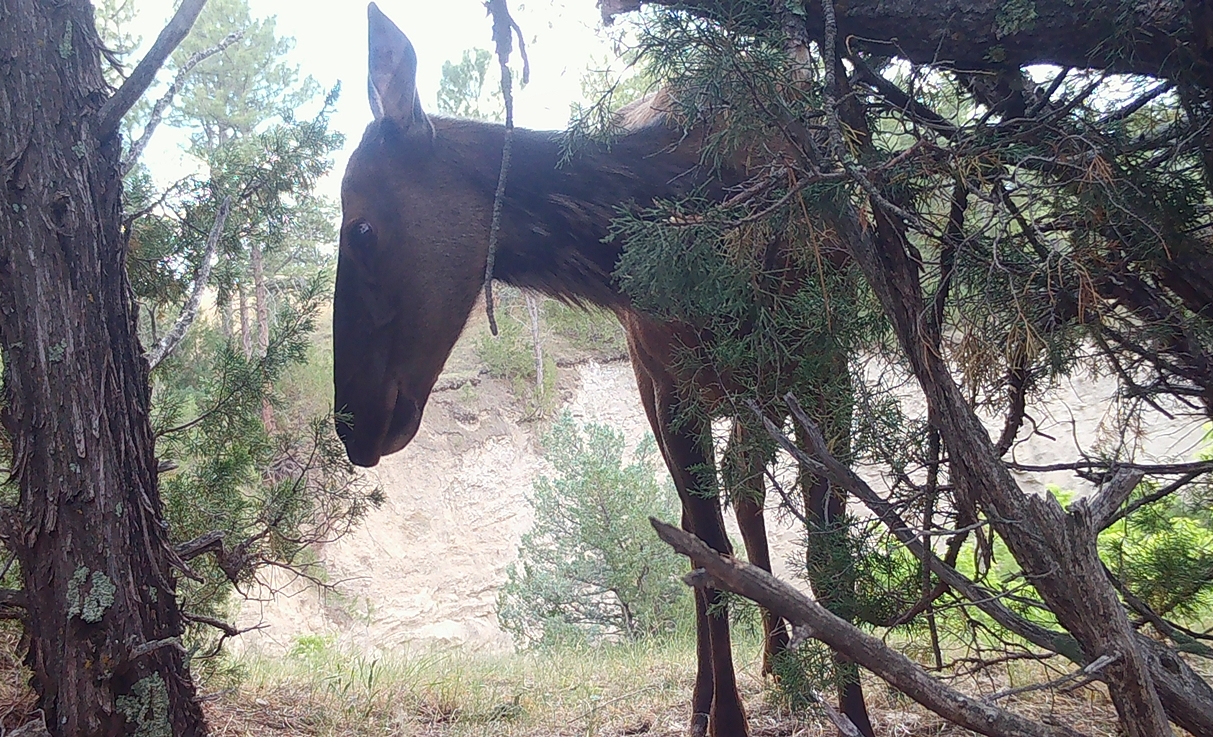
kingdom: Animalia
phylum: Chordata
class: Mammalia
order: Artiodactyla
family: Cervidae
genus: Cervus
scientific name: Cervus elaphus
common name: Red deer
